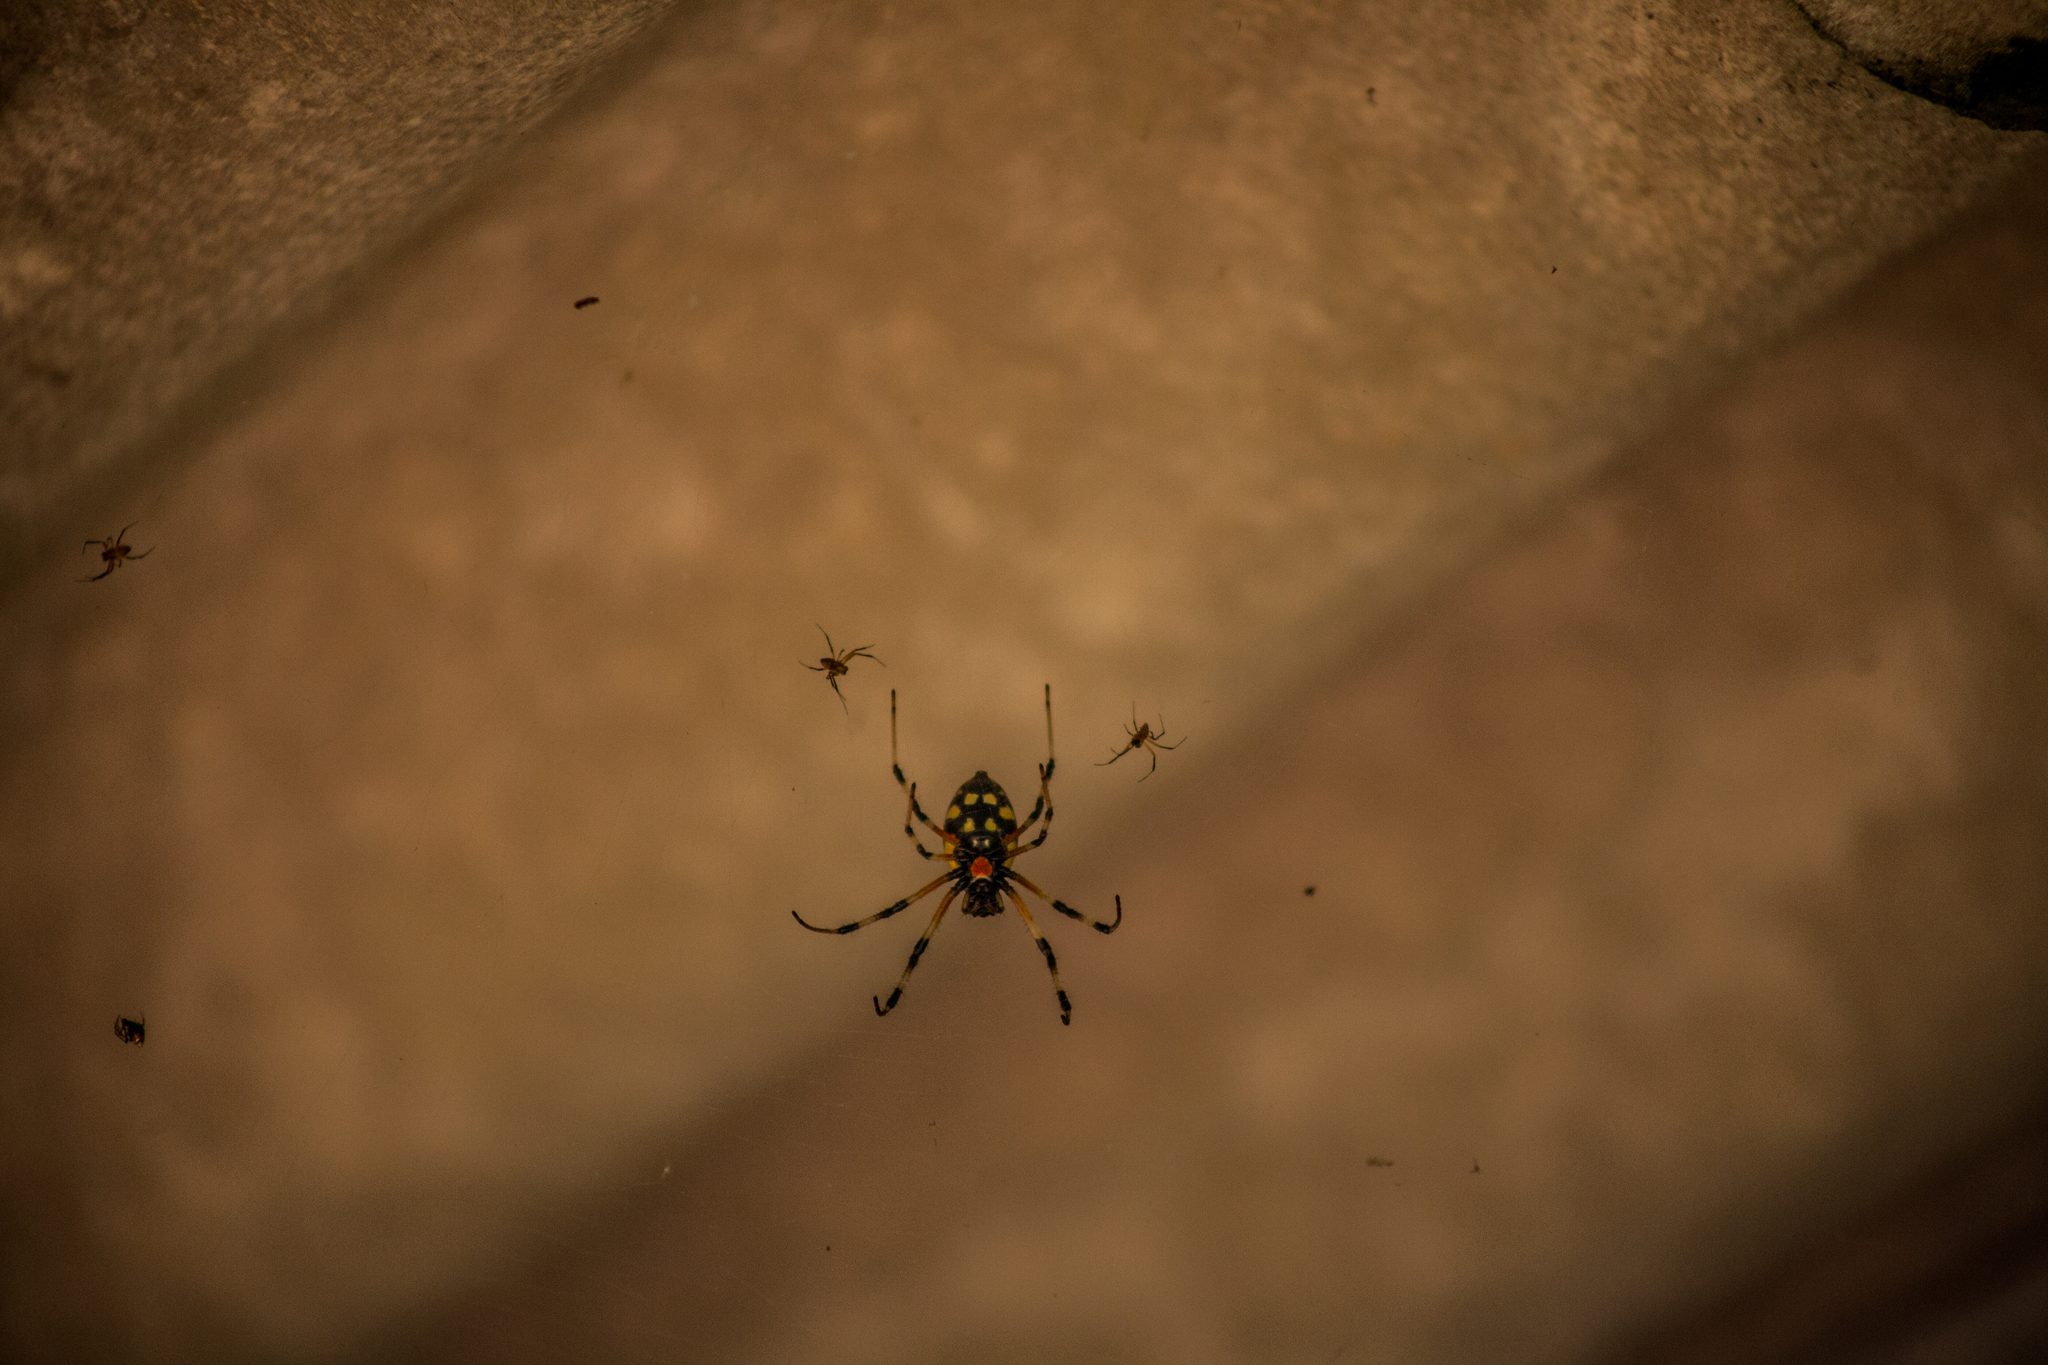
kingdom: Animalia
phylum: Arthropoda
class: Arachnida
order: Araneae
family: Araneidae
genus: Nephilingis
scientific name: Nephilingis cruentata
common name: African hermit spider
